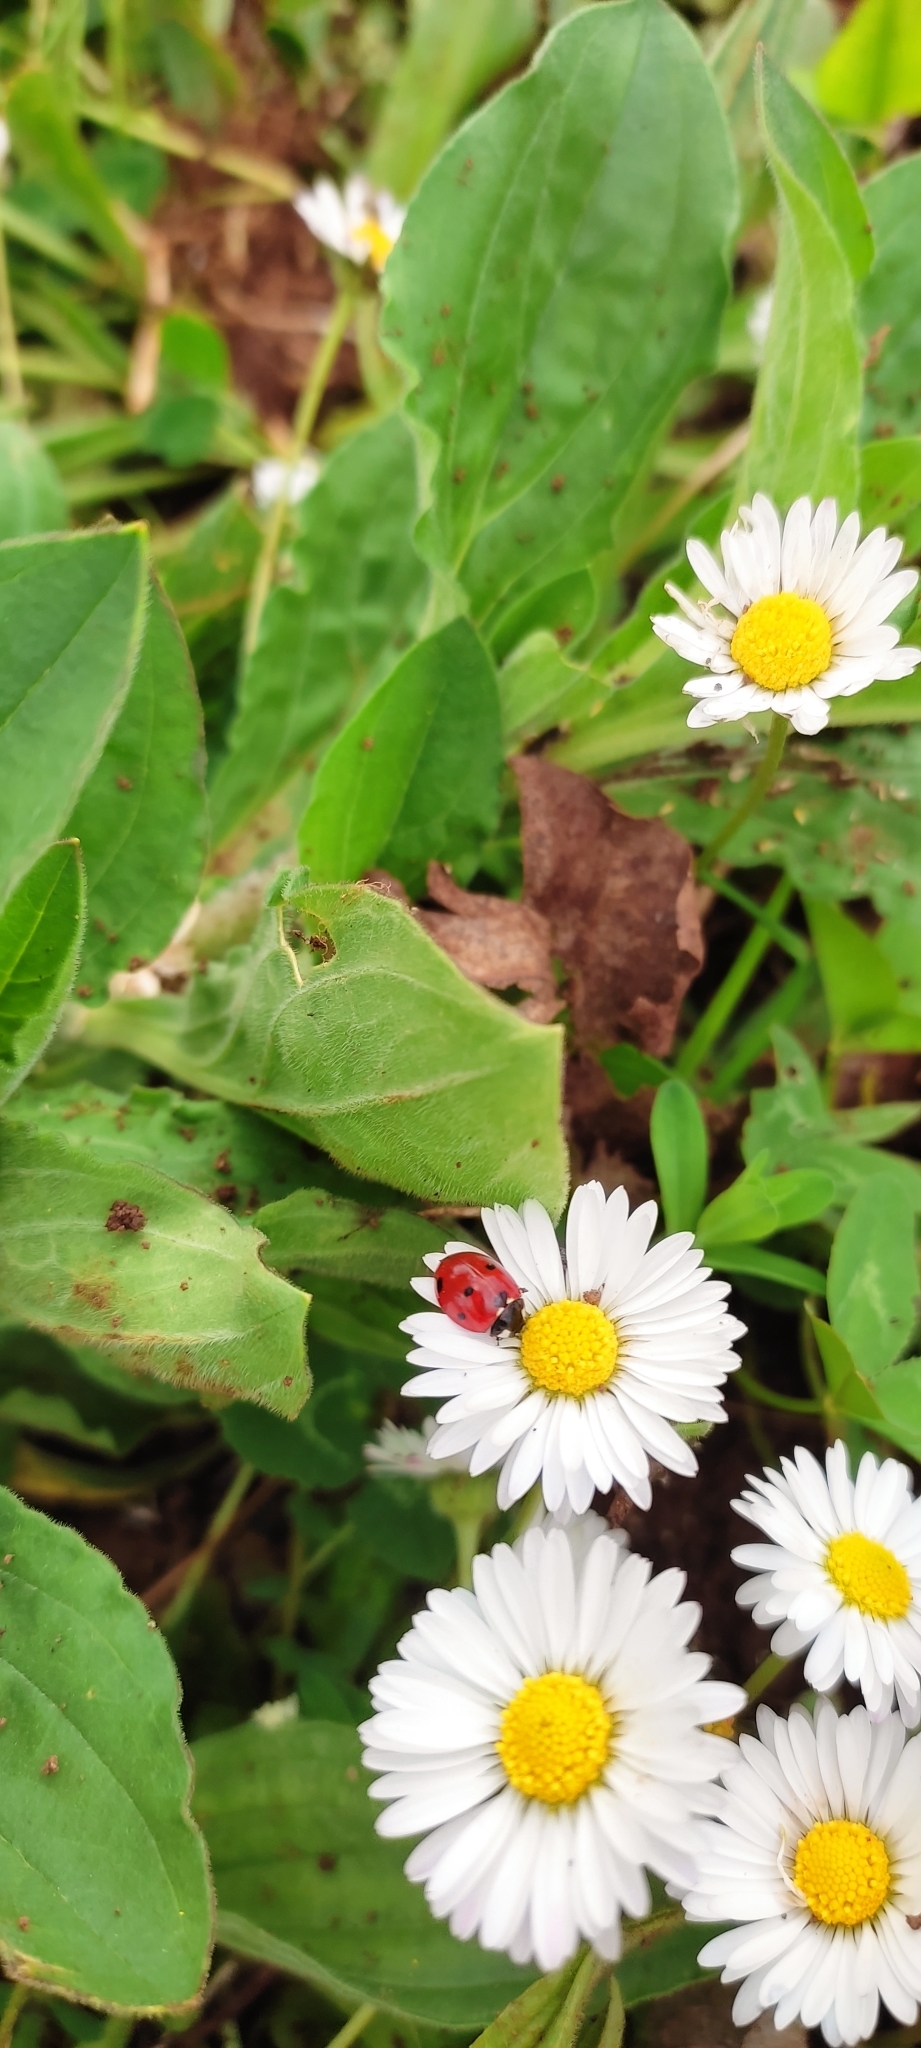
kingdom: Animalia
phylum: Arthropoda
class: Insecta
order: Coleoptera
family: Coccinellidae
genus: Coccinella
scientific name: Coccinella septempunctata
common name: Sevenspotted lady beetle
